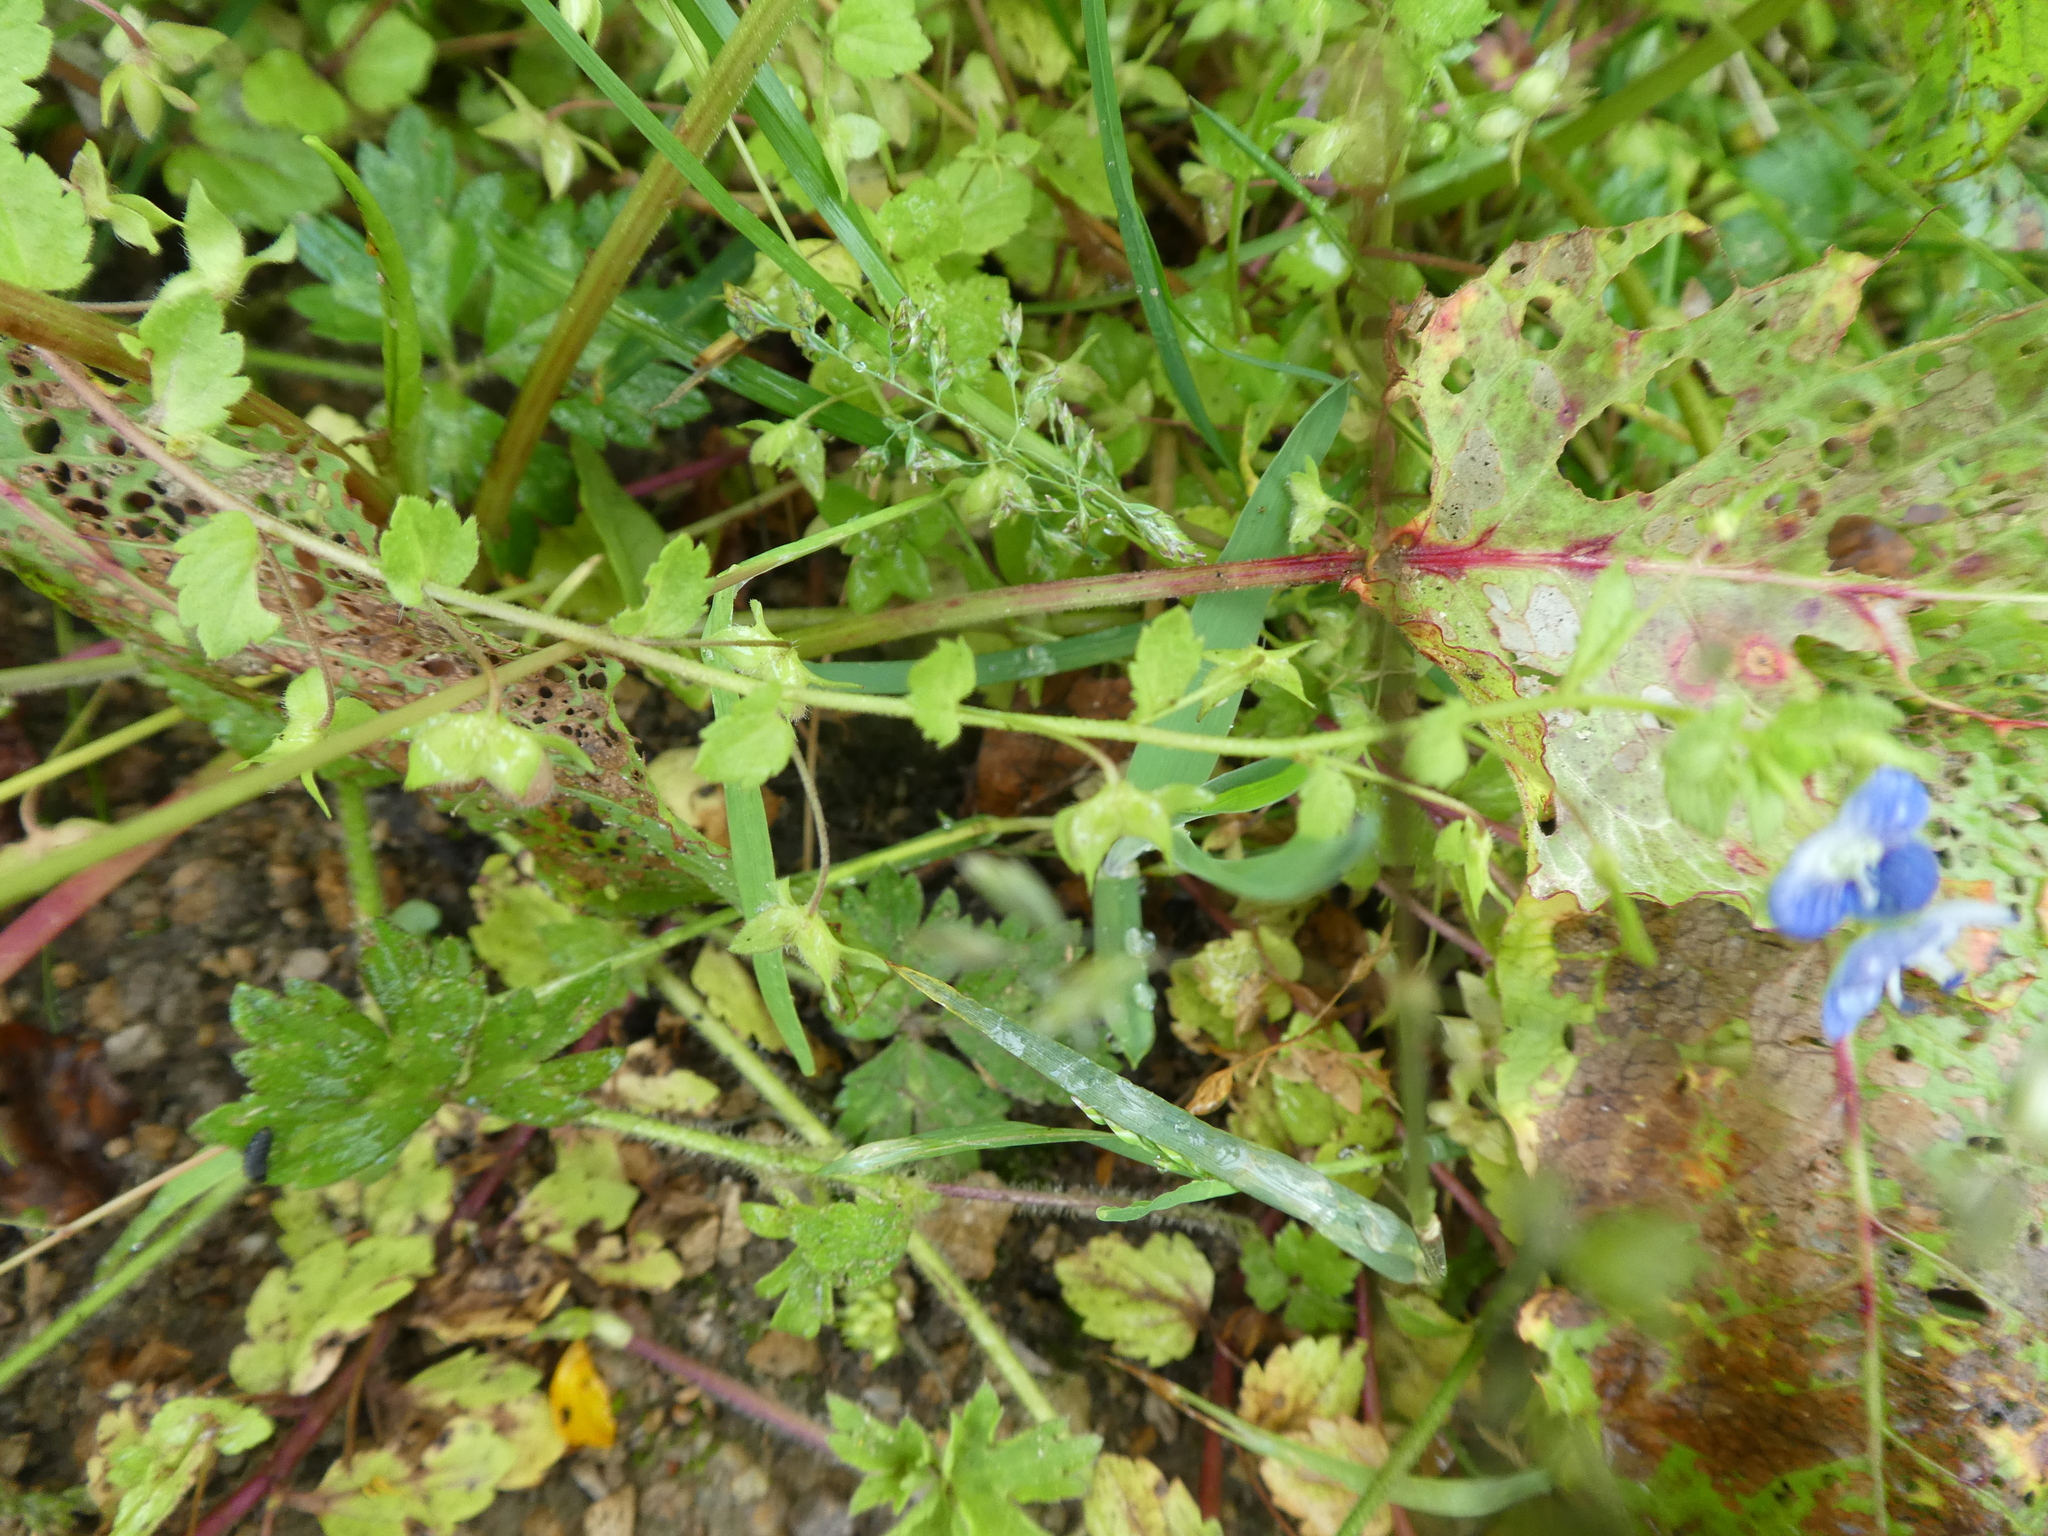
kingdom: Plantae
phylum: Tracheophyta
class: Magnoliopsida
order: Lamiales
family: Plantaginaceae
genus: Veronica
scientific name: Veronica persica
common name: Common field-speedwell
